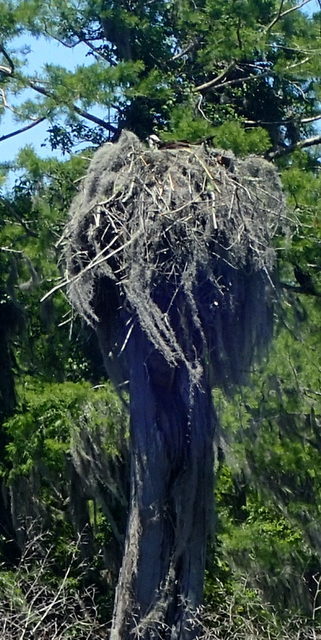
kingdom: Animalia
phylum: Chordata
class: Aves
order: Accipitriformes
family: Pandionidae
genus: Pandion
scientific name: Pandion haliaetus
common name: Osprey
